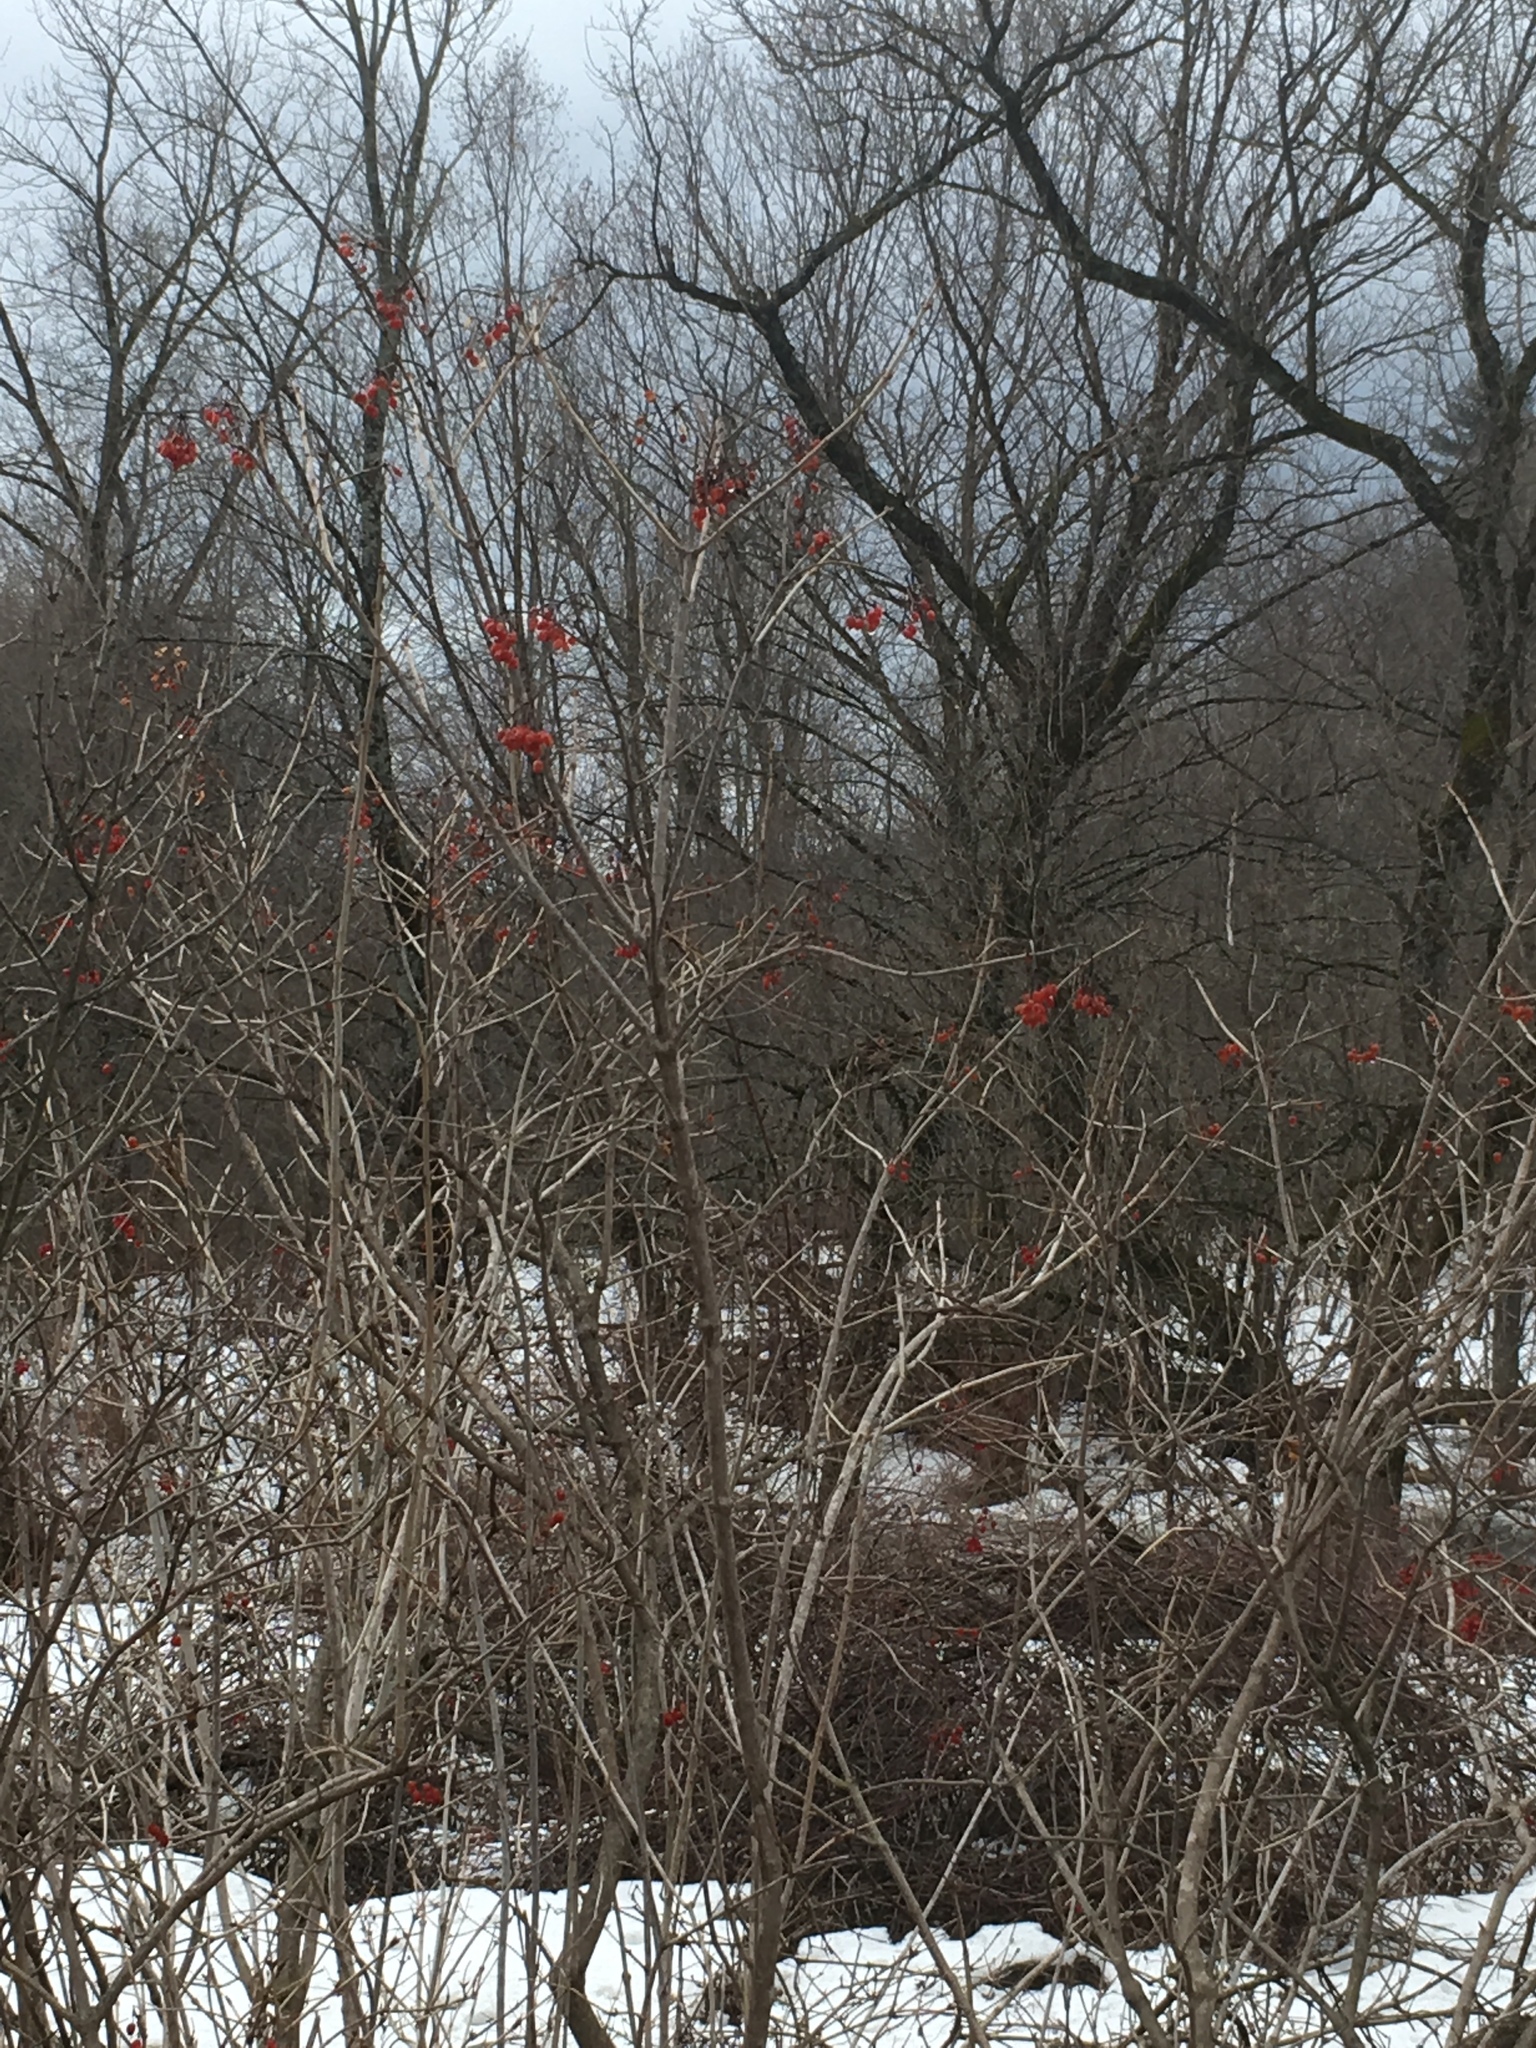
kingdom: Plantae
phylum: Tracheophyta
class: Magnoliopsida
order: Dipsacales
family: Viburnaceae
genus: Viburnum
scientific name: Viburnum opulus
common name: Guelder-rose
